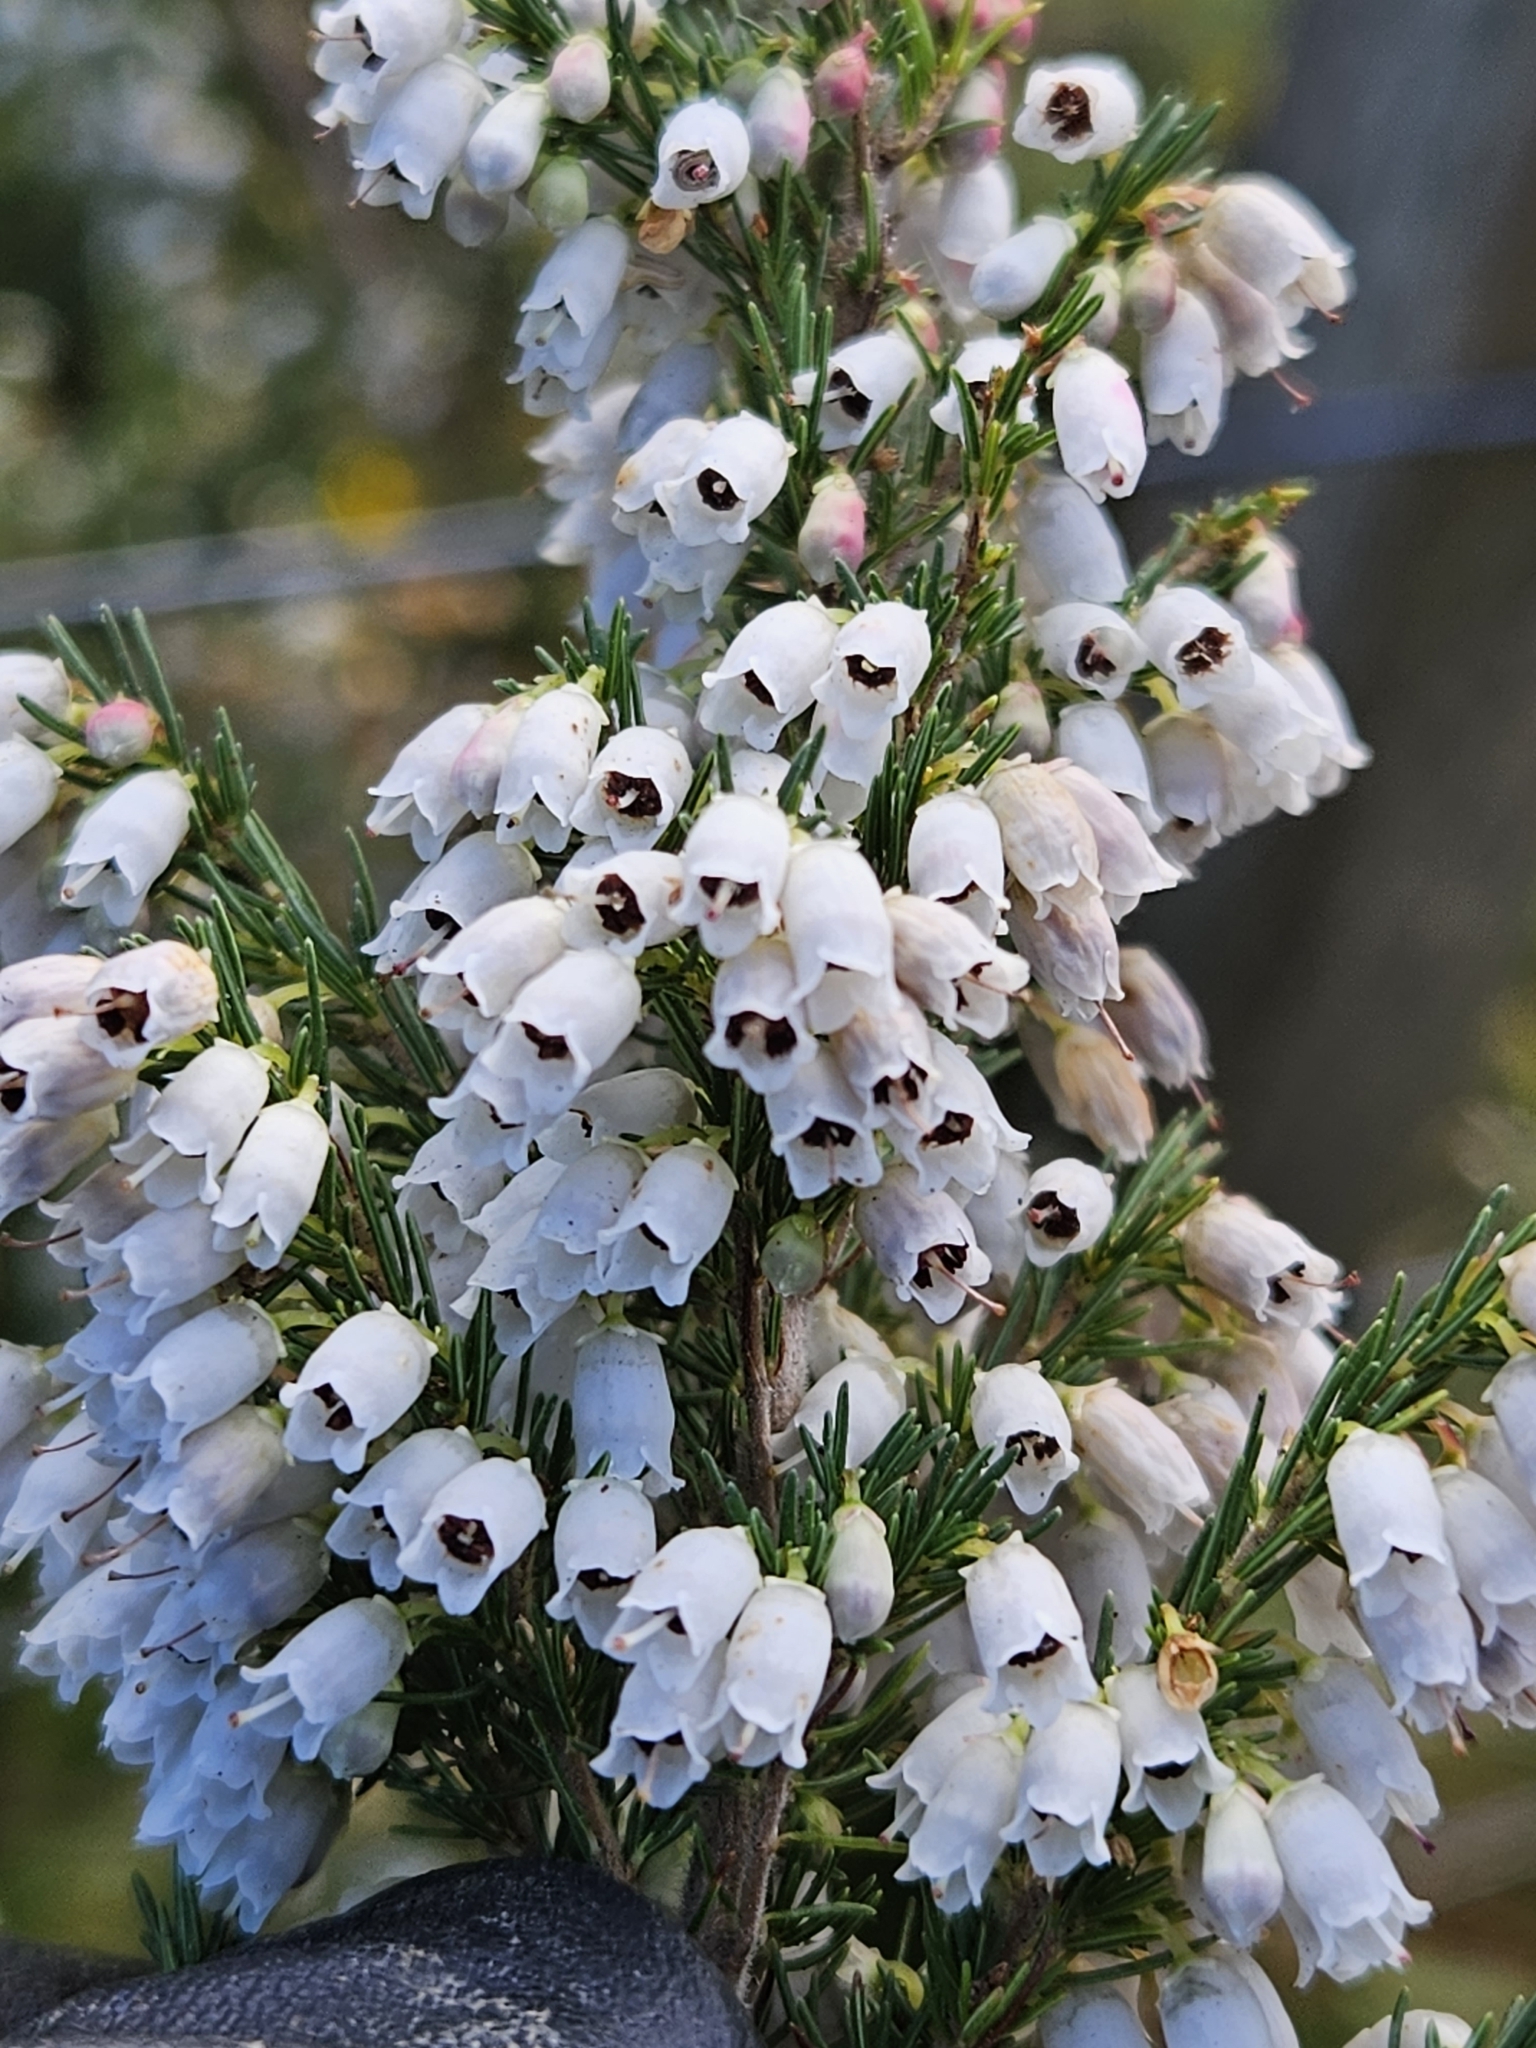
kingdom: Plantae
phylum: Tracheophyta
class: Magnoliopsida
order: Ericales
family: Ericaceae
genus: Erica
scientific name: Erica lusitanica
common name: Spanish heath
